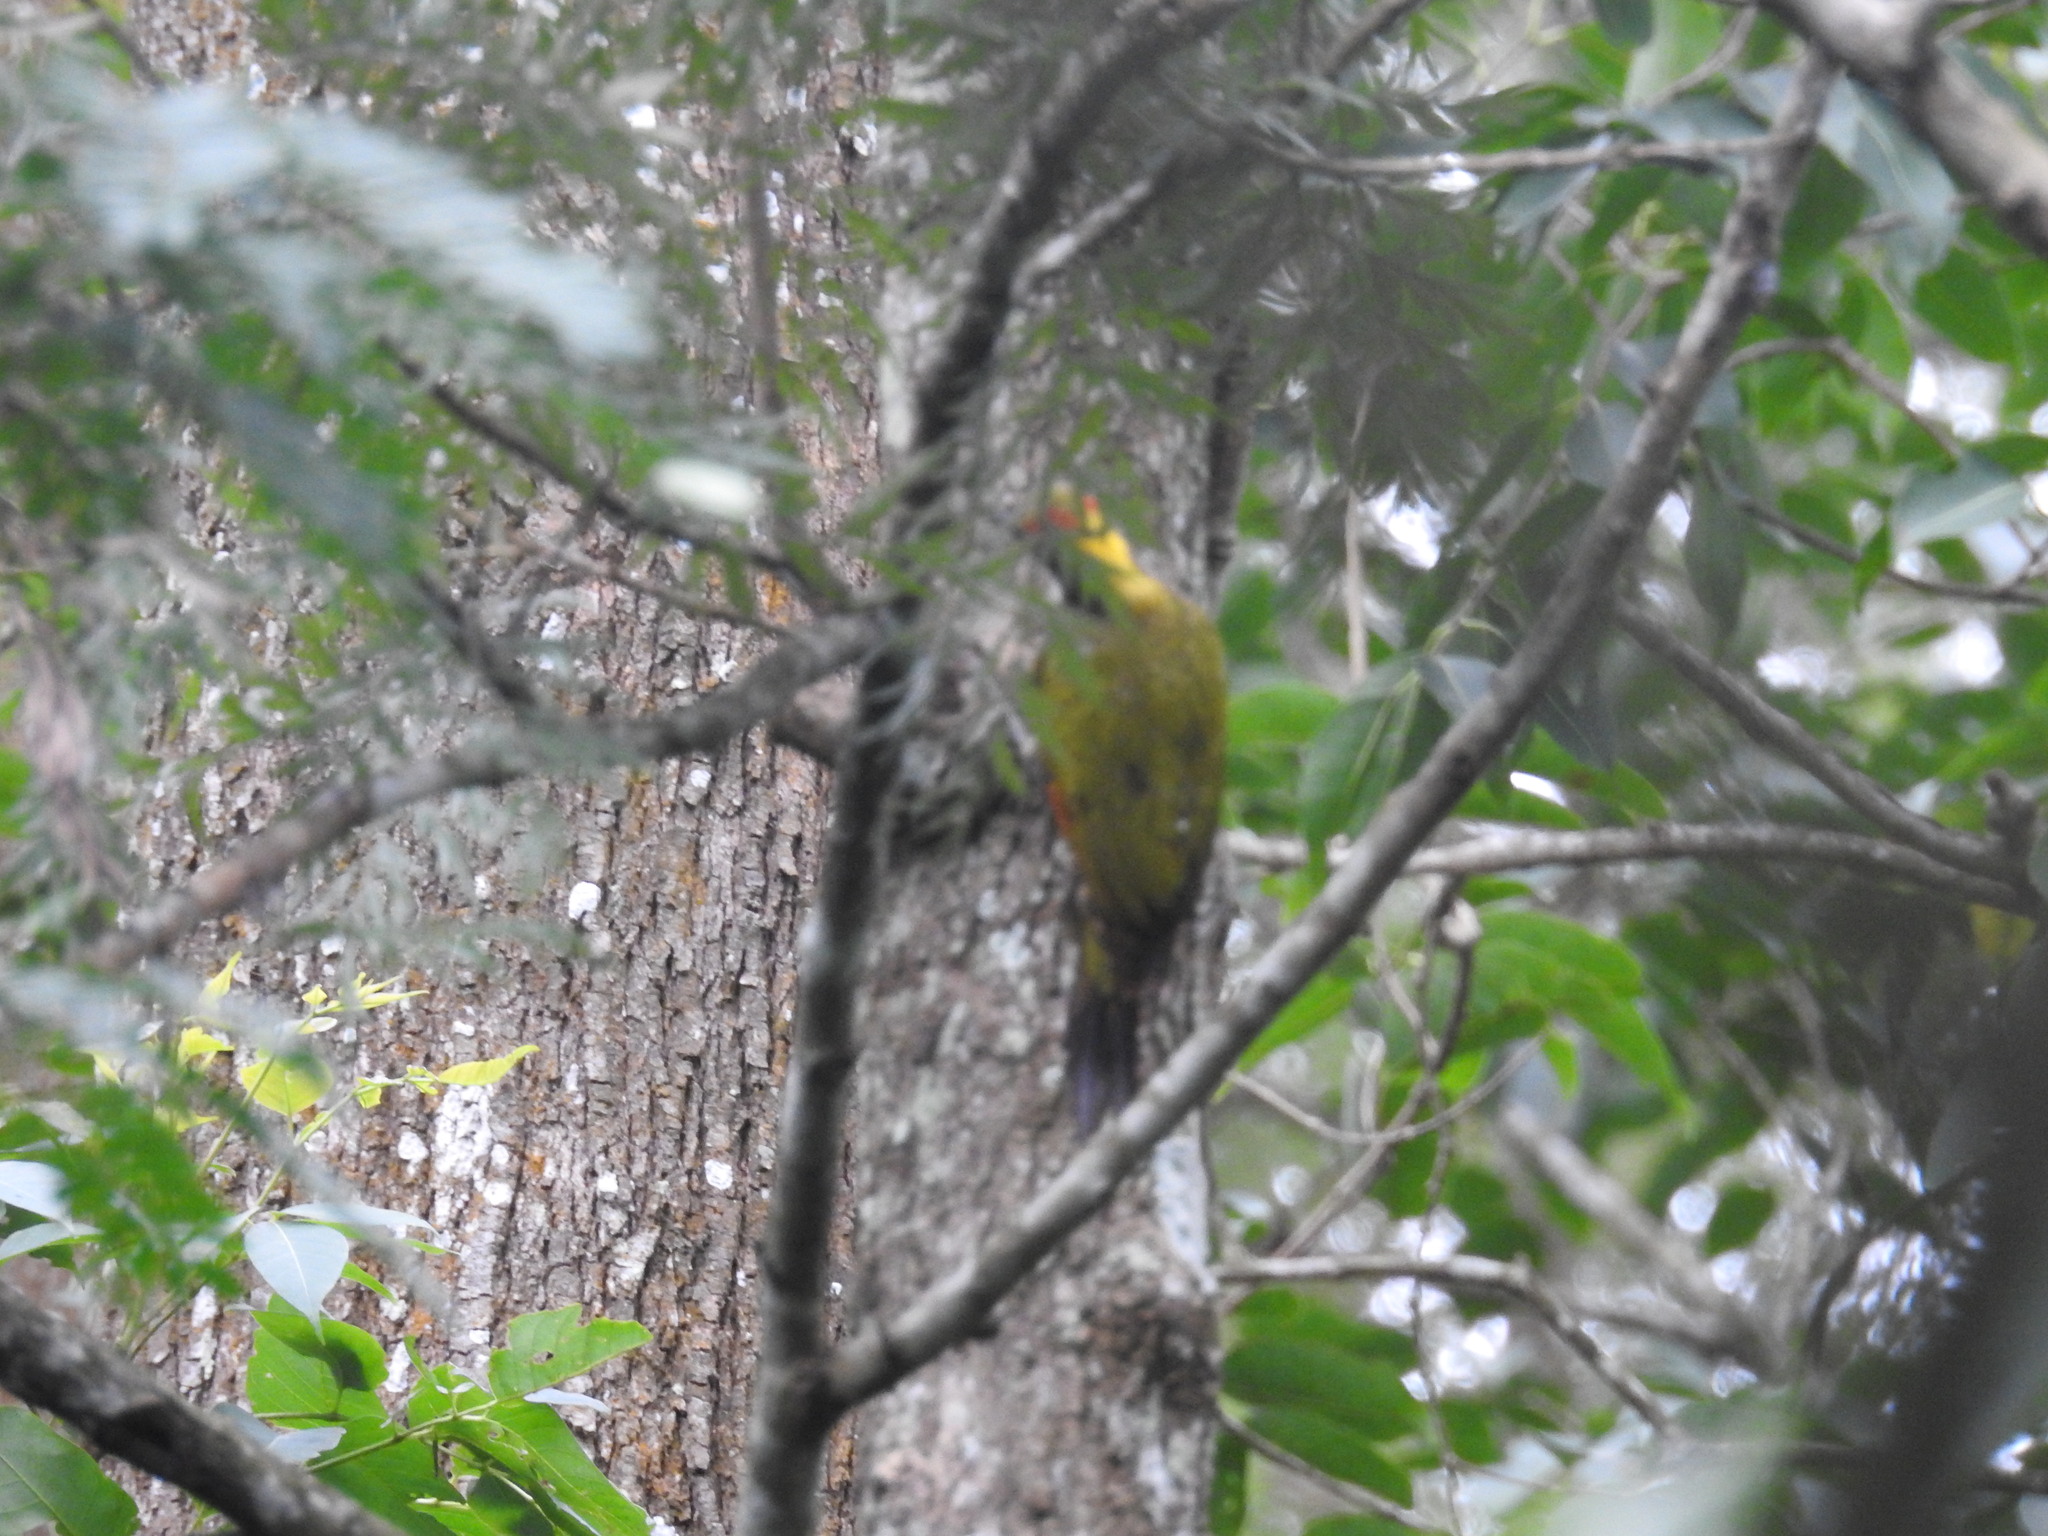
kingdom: Animalia
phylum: Chordata
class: Aves
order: Piciformes
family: Picidae
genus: Picus
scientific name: Picus chlorolophus
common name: Lesser yellownape
